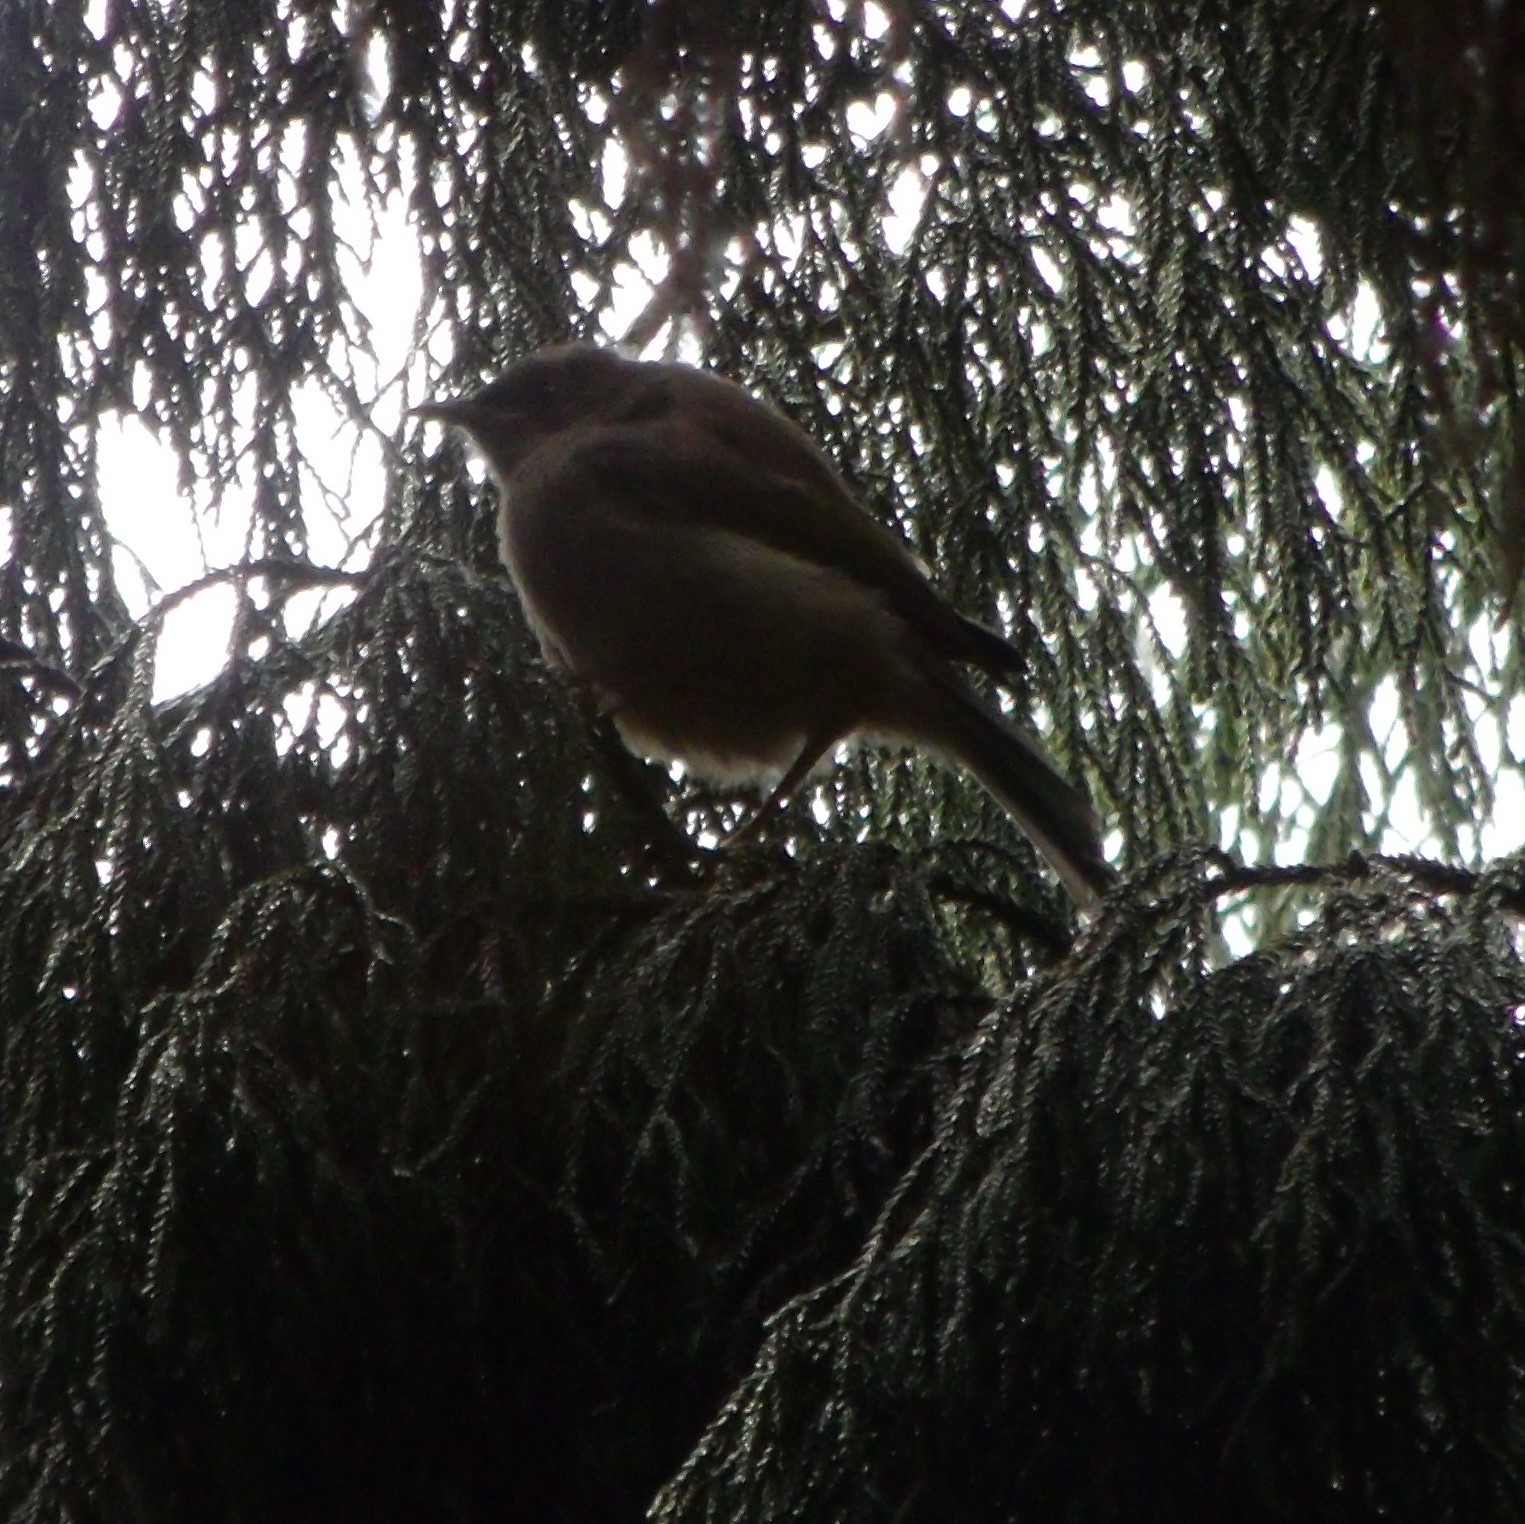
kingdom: Animalia
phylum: Chordata
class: Aves
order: Passeriformes
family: Meliphagidae
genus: Anthornis
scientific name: Anthornis melanura
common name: New zealand bellbird
